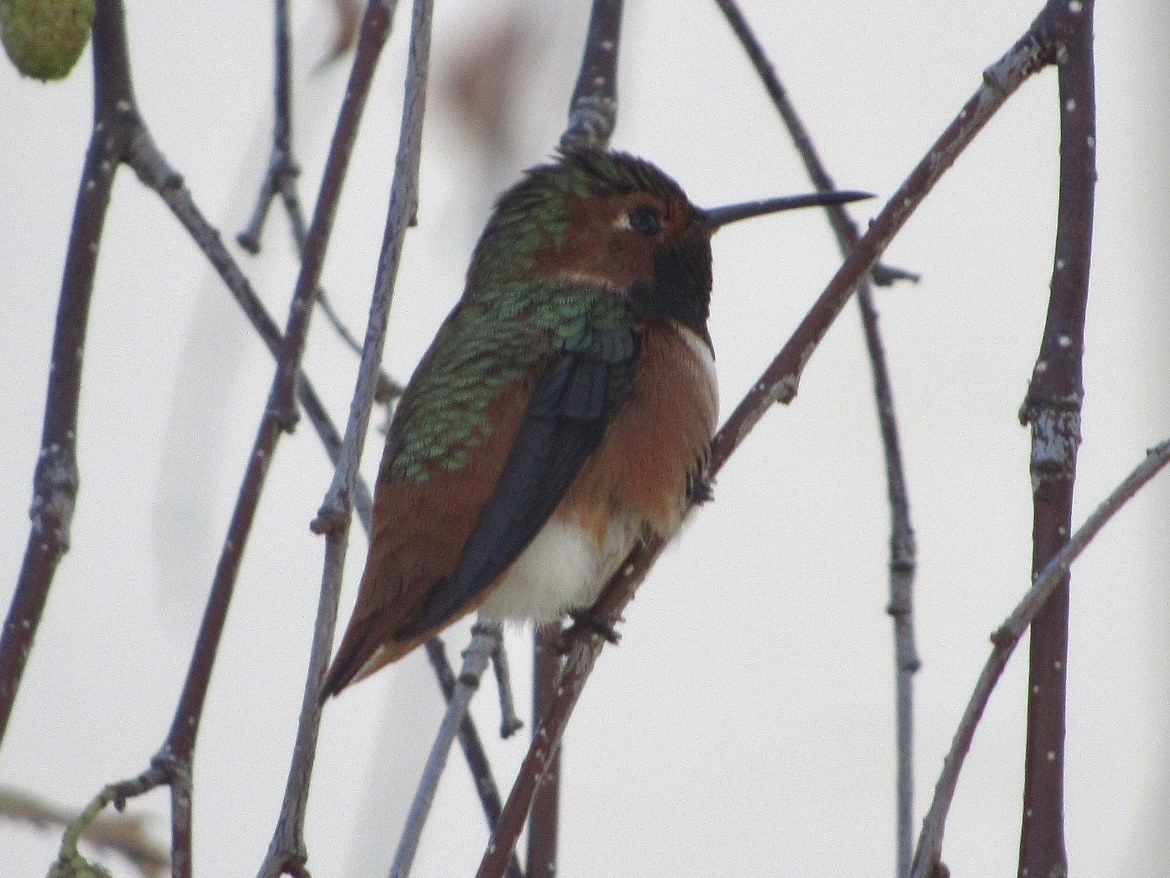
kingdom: Animalia
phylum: Chordata
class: Aves
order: Apodiformes
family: Trochilidae
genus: Selasphorus
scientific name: Selasphorus sasin
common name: Allen's hummingbird
